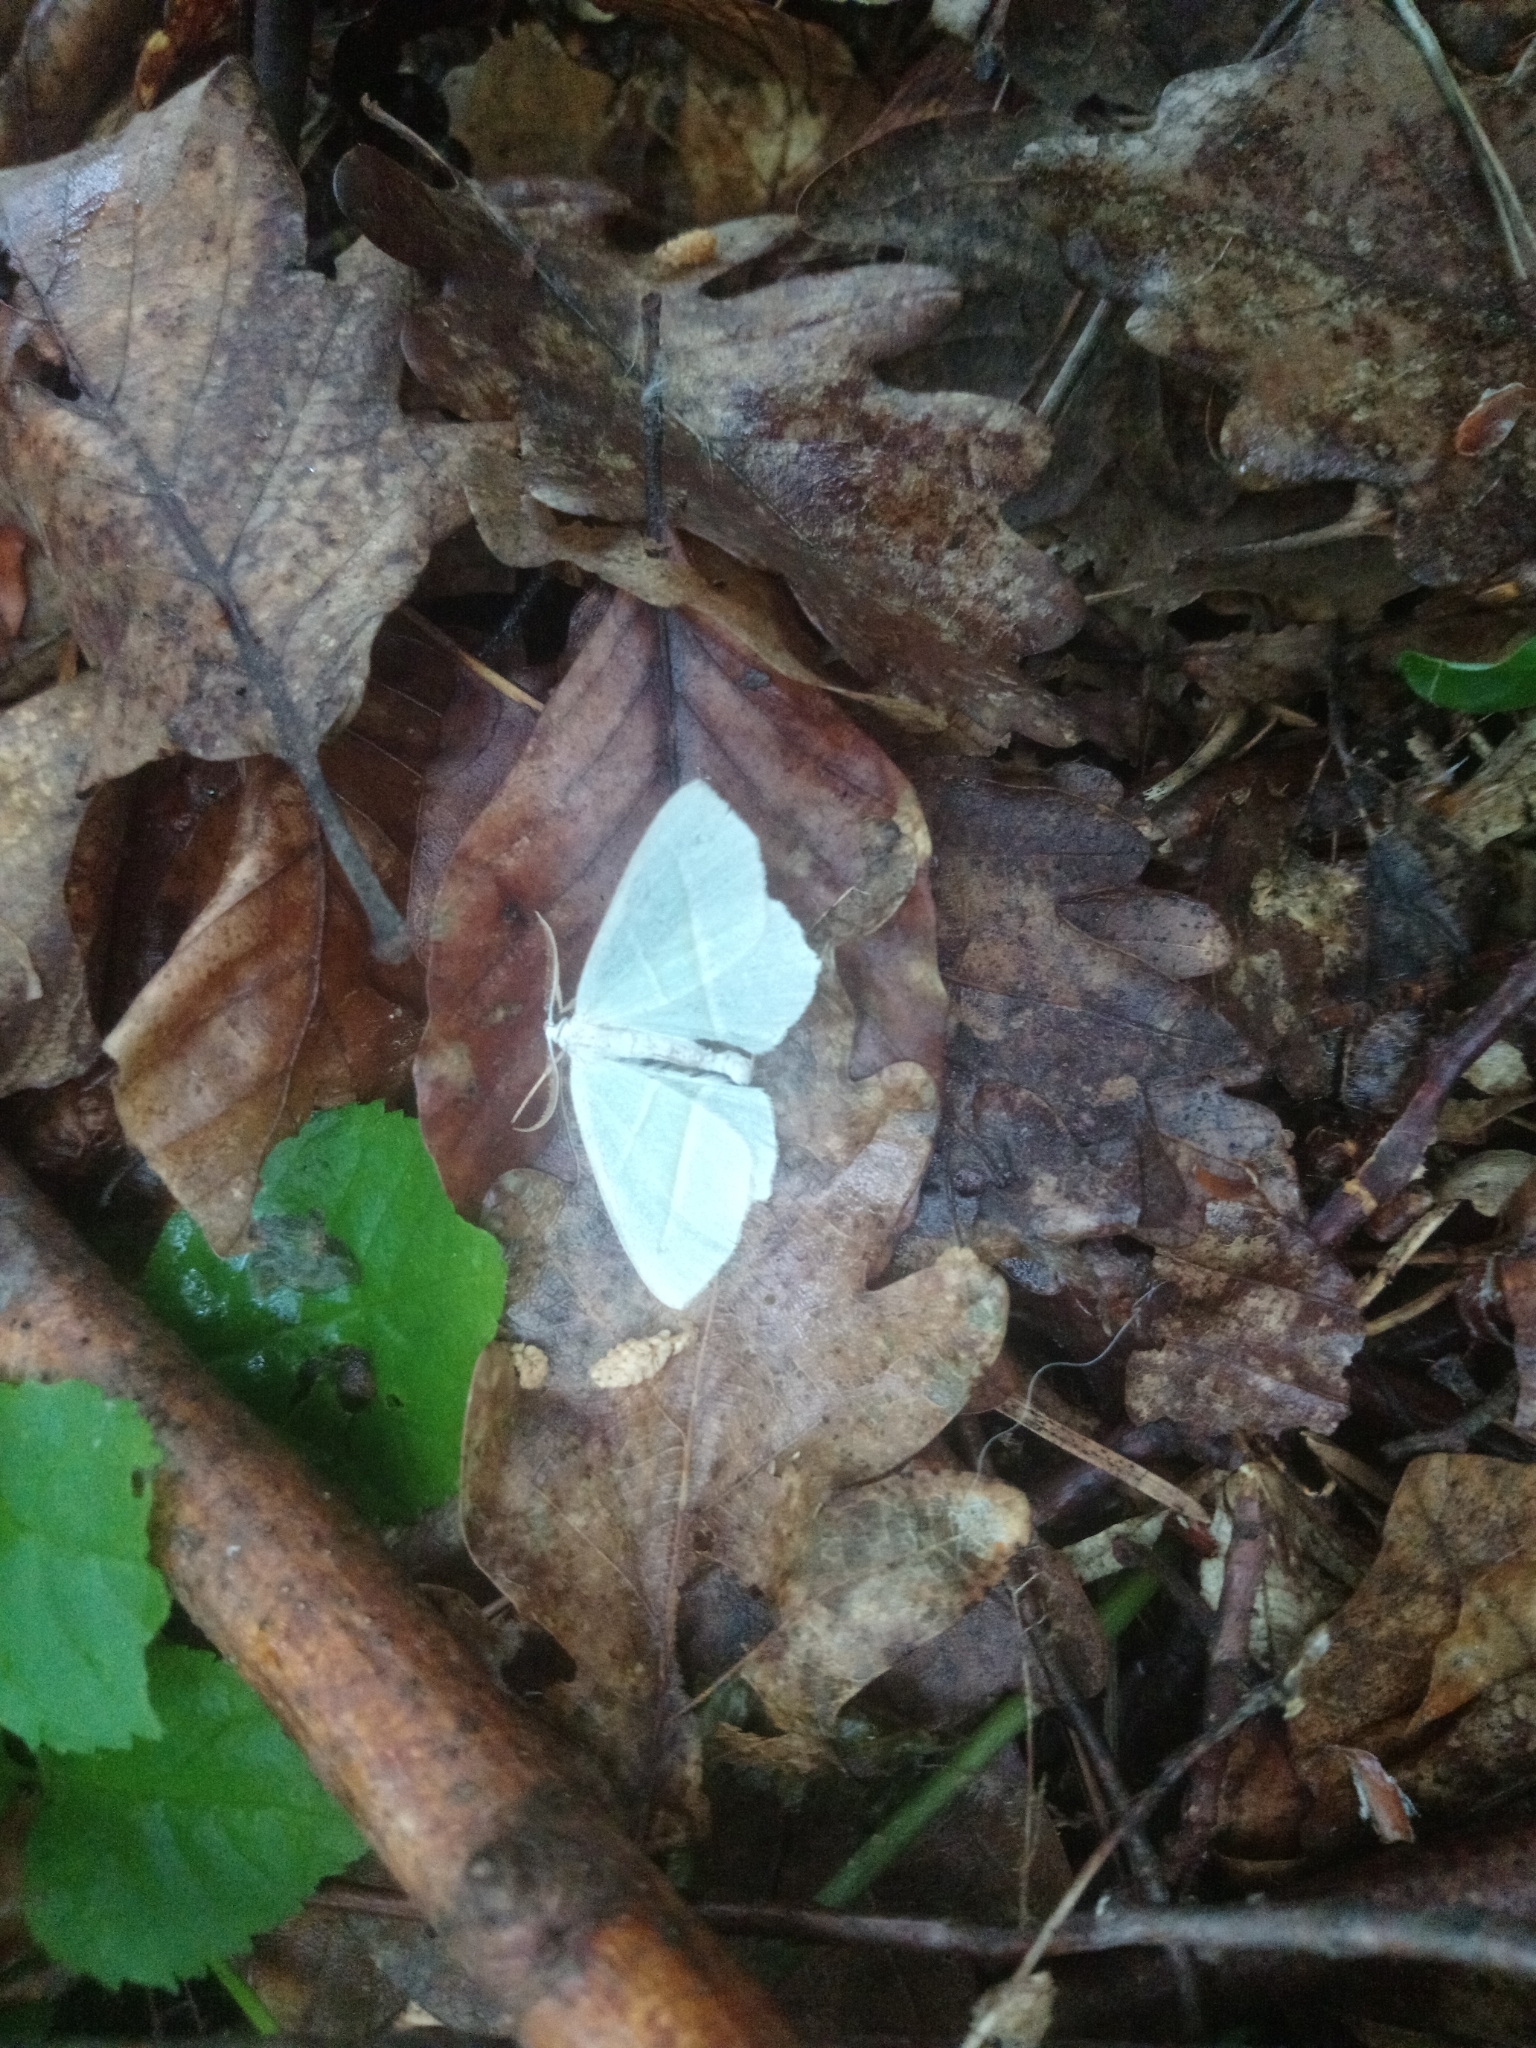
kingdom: Animalia
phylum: Arthropoda
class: Insecta
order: Lepidoptera
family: Geometridae
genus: Campaea
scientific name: Campaea margaritaria
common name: Light emerald
